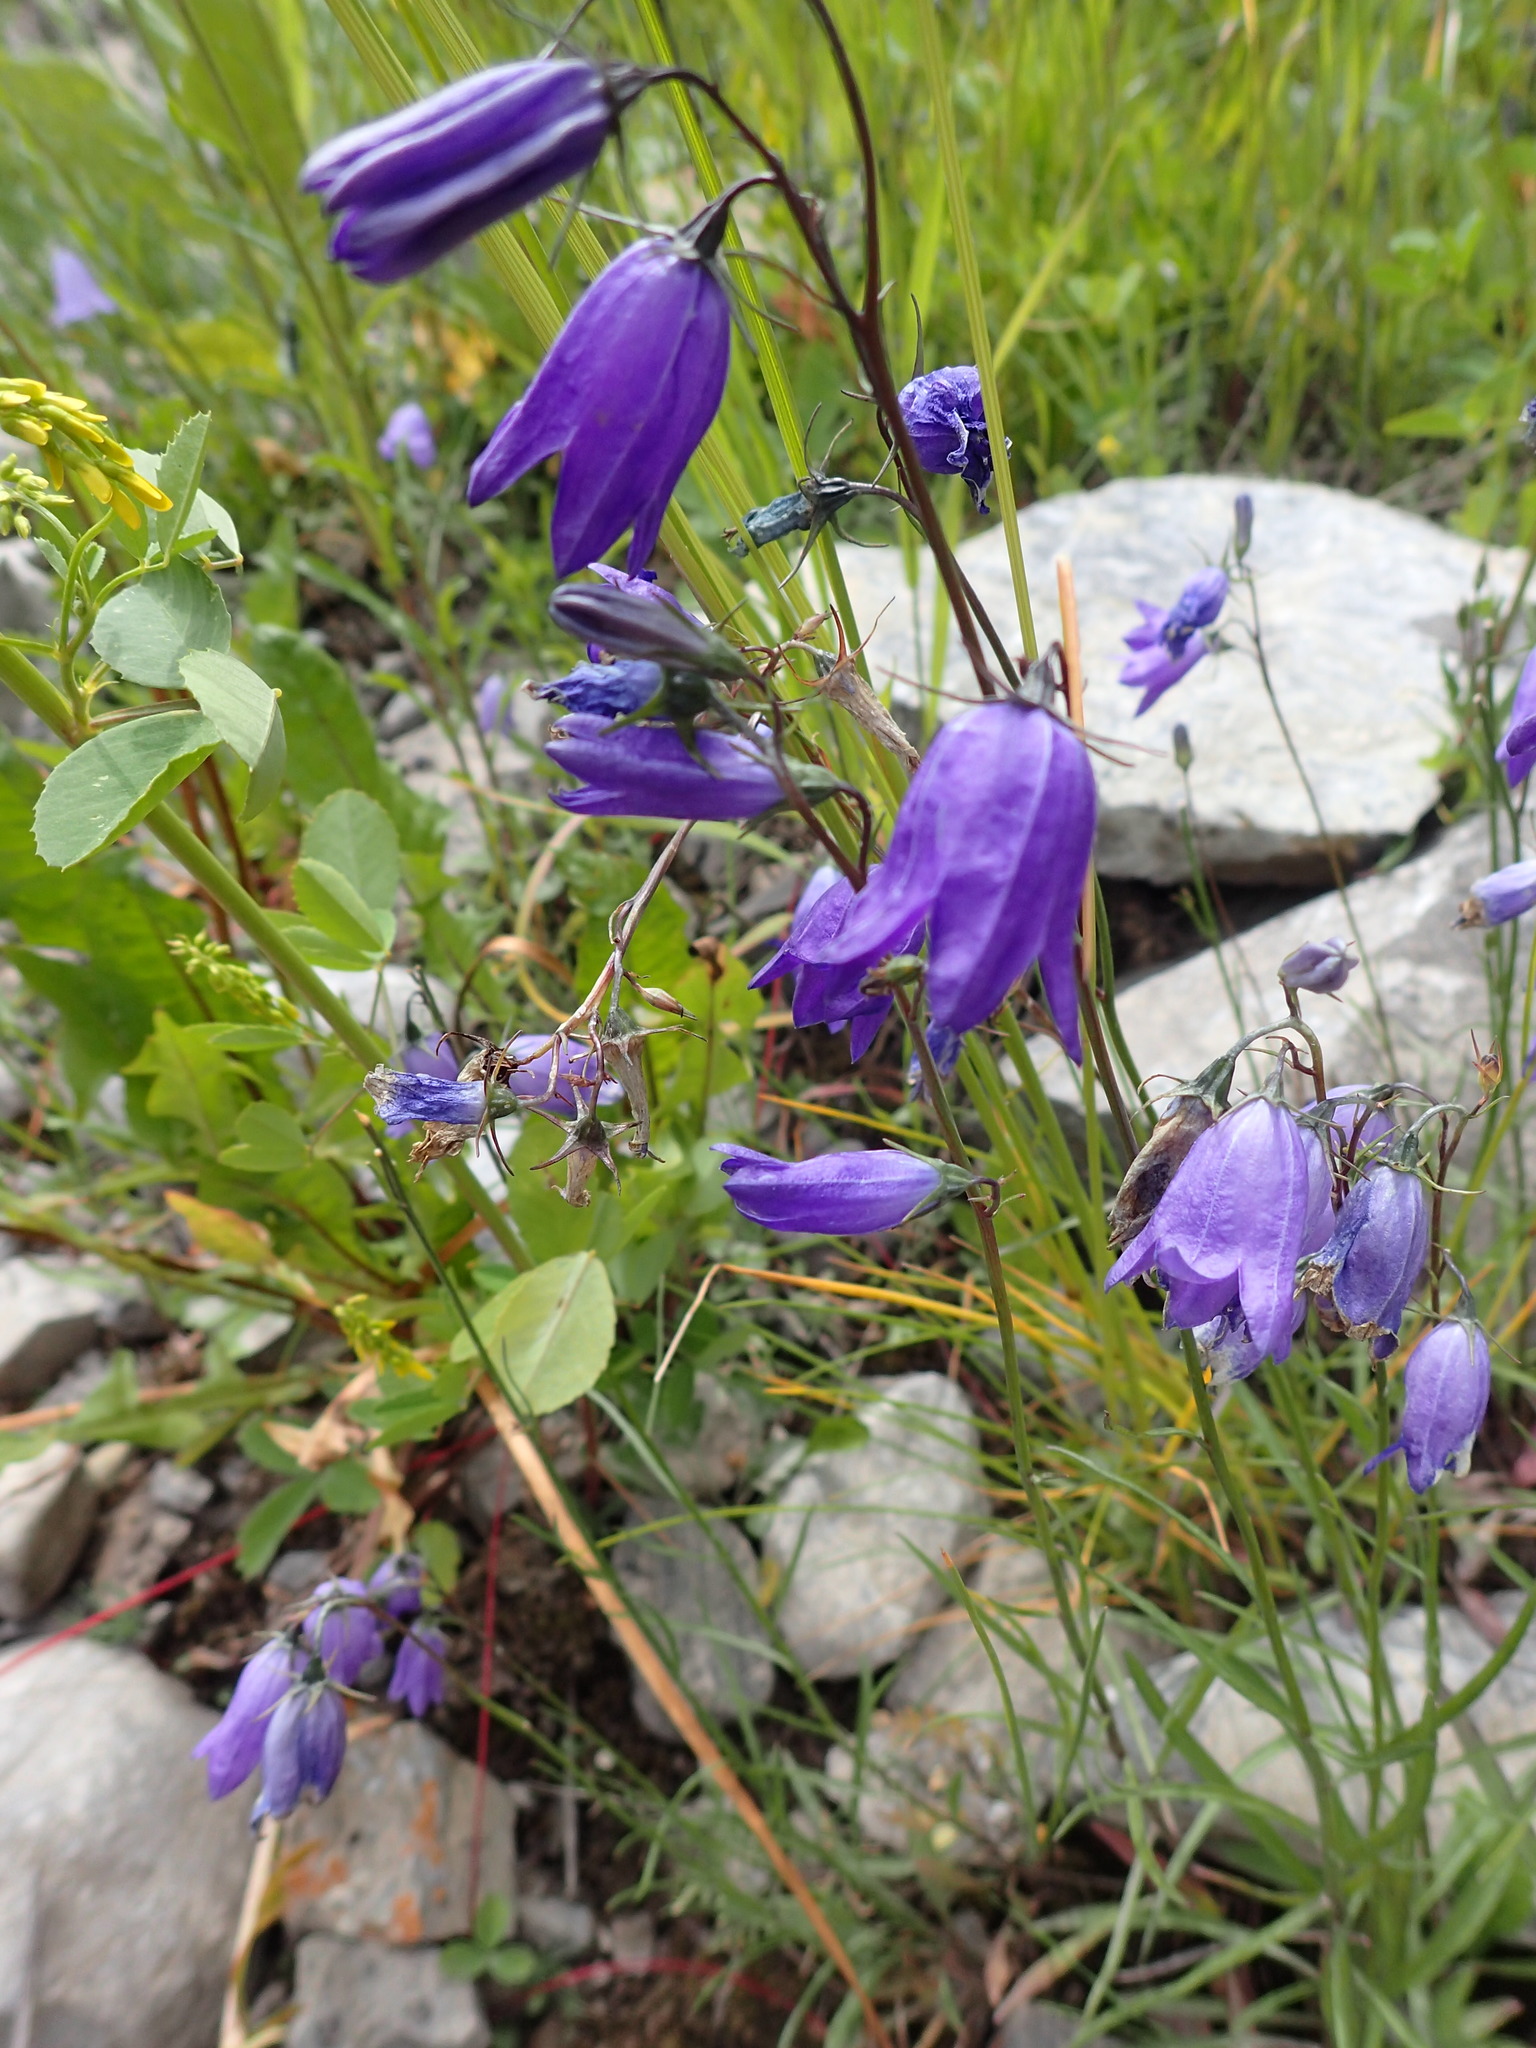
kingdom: Plantae
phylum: Tracheophyta
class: Magnoliopsida
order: Asterales
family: Campanulaceae
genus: Campanula
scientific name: Campanula alaskana
